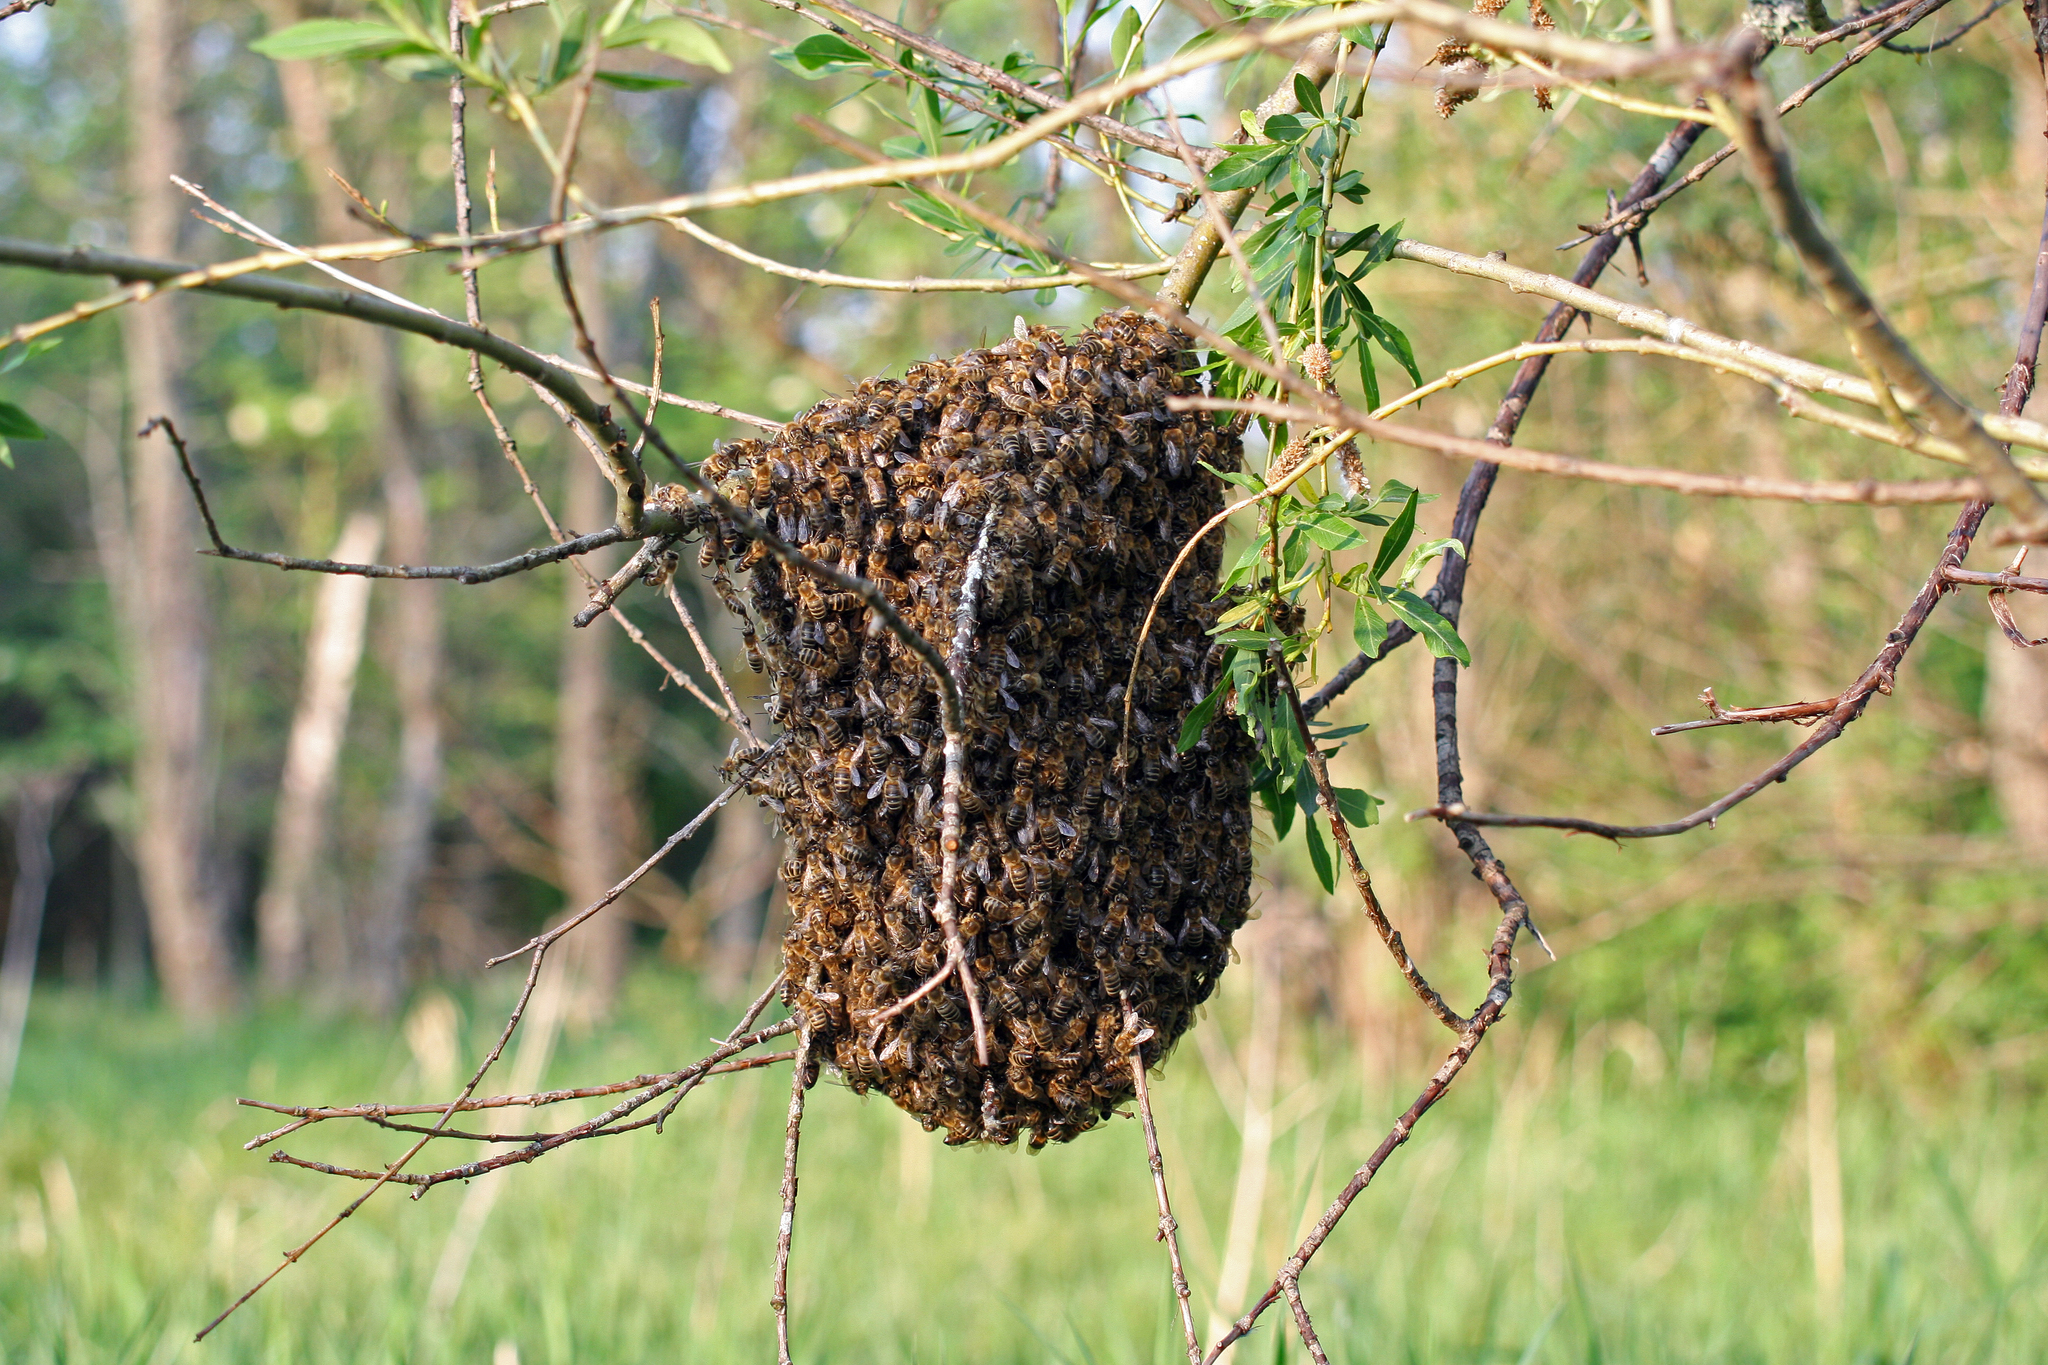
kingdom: Animalia
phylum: Arthropoda
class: Insecta
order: Hymenoptera
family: Apidae
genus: Apis
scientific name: Apis mellifera
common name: Honey bee
